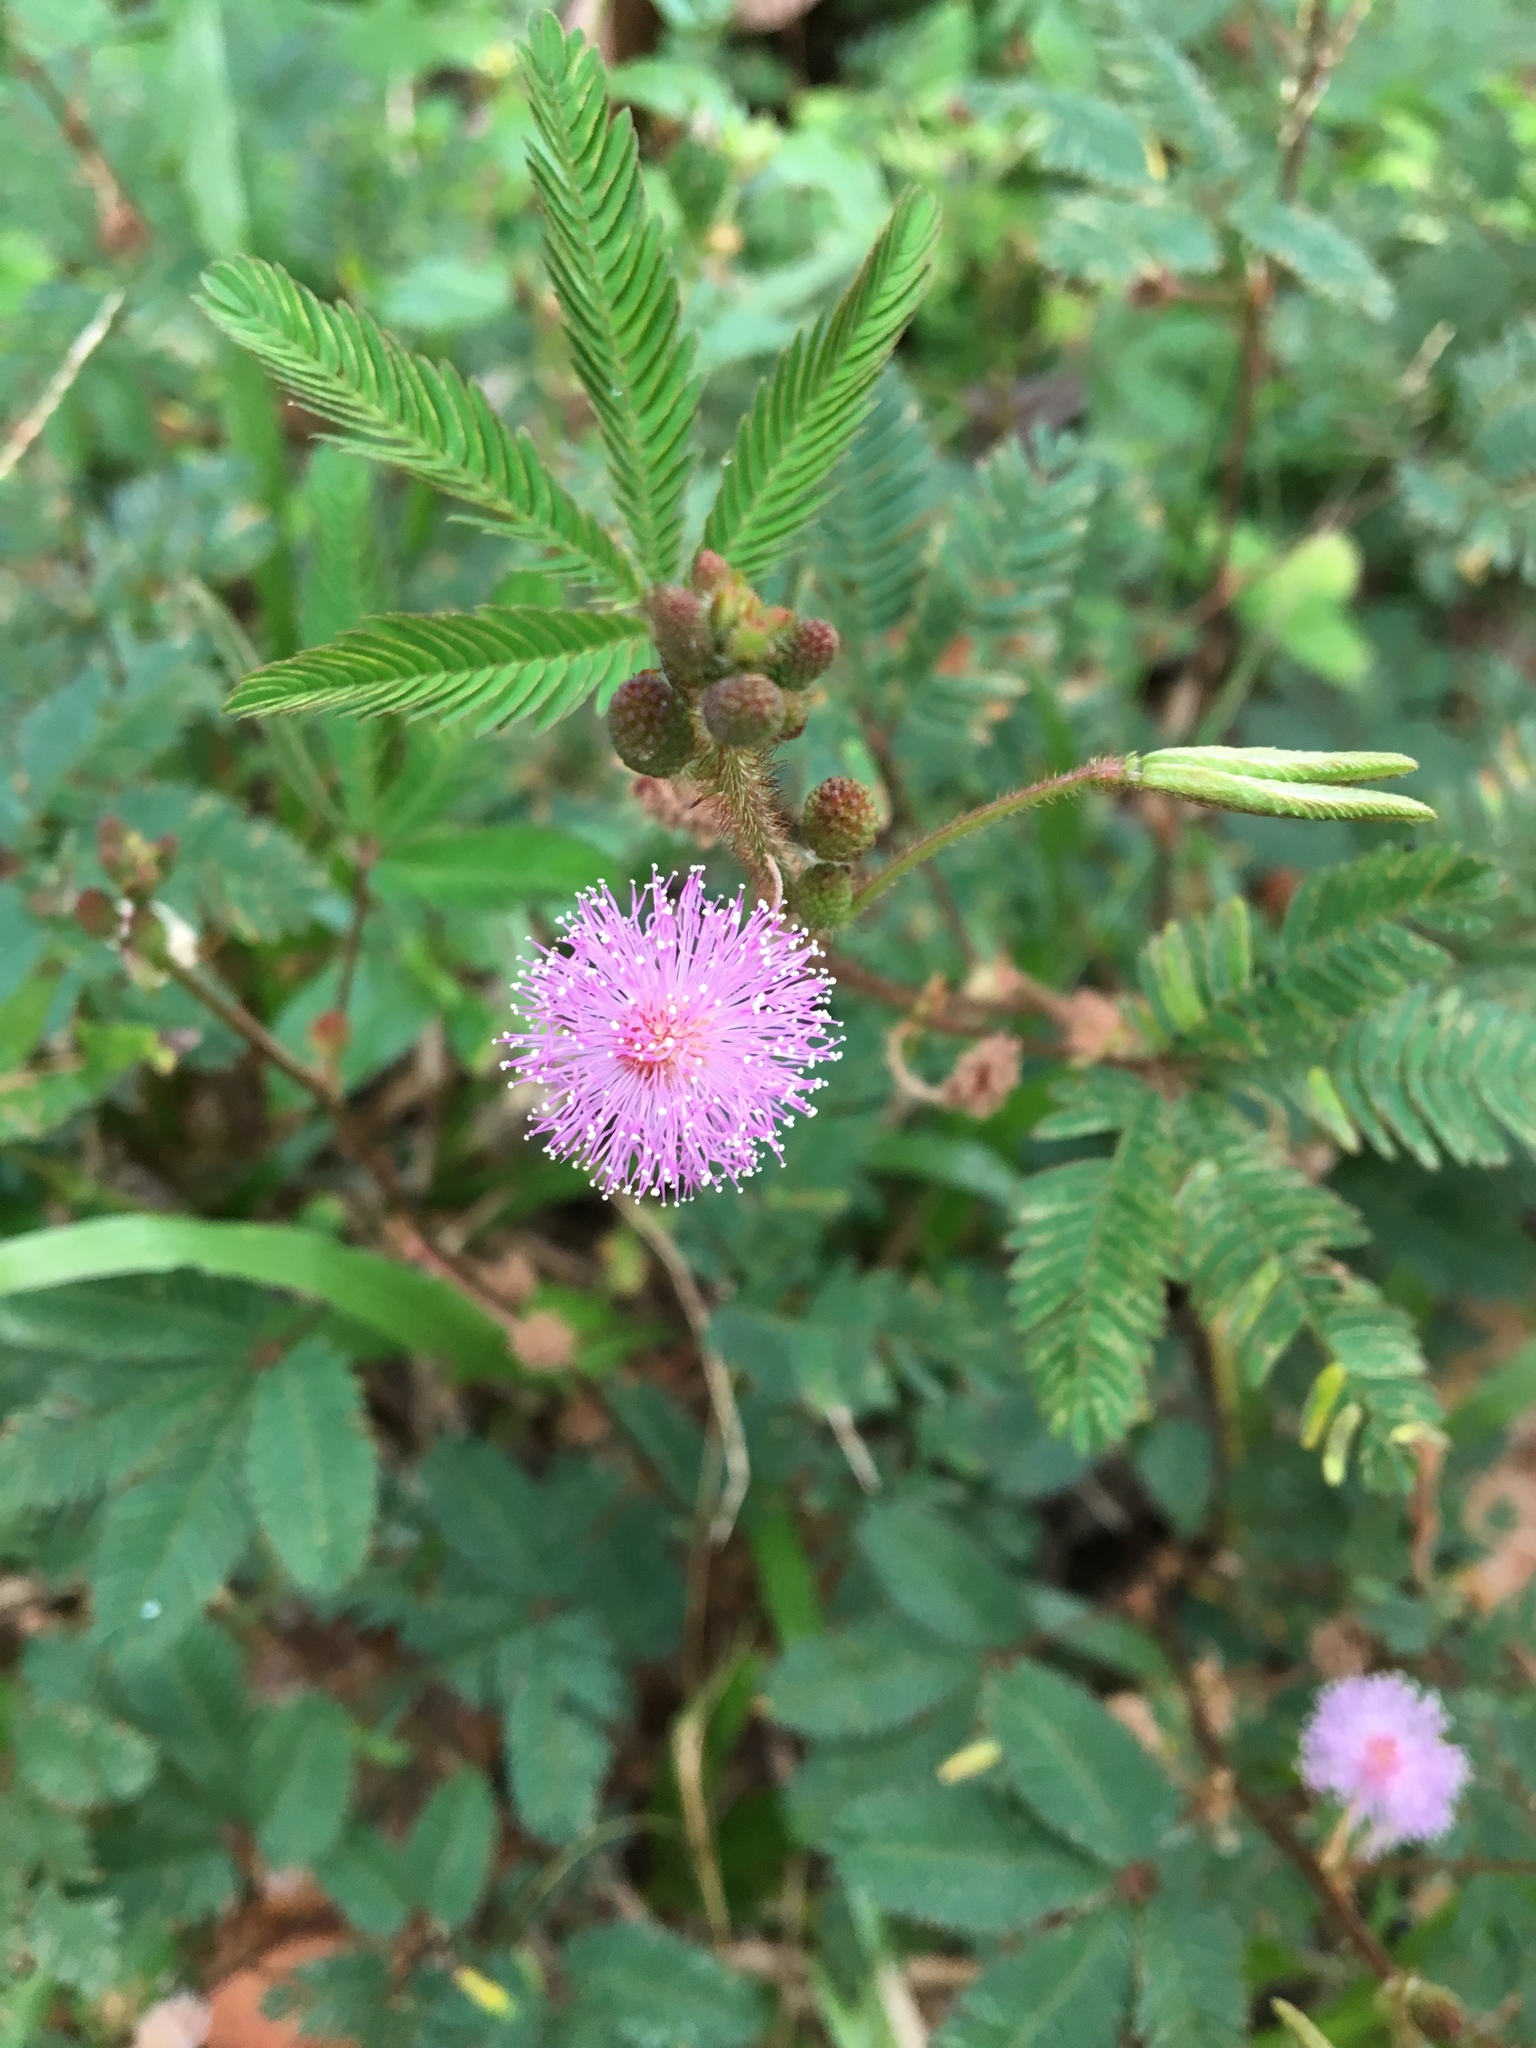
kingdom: Plantae
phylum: Tracheophyta
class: Magnoliopsida
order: Fabales
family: Fabaceae
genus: Mimosa
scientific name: Mimosa pudica
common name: Sensitive plant
